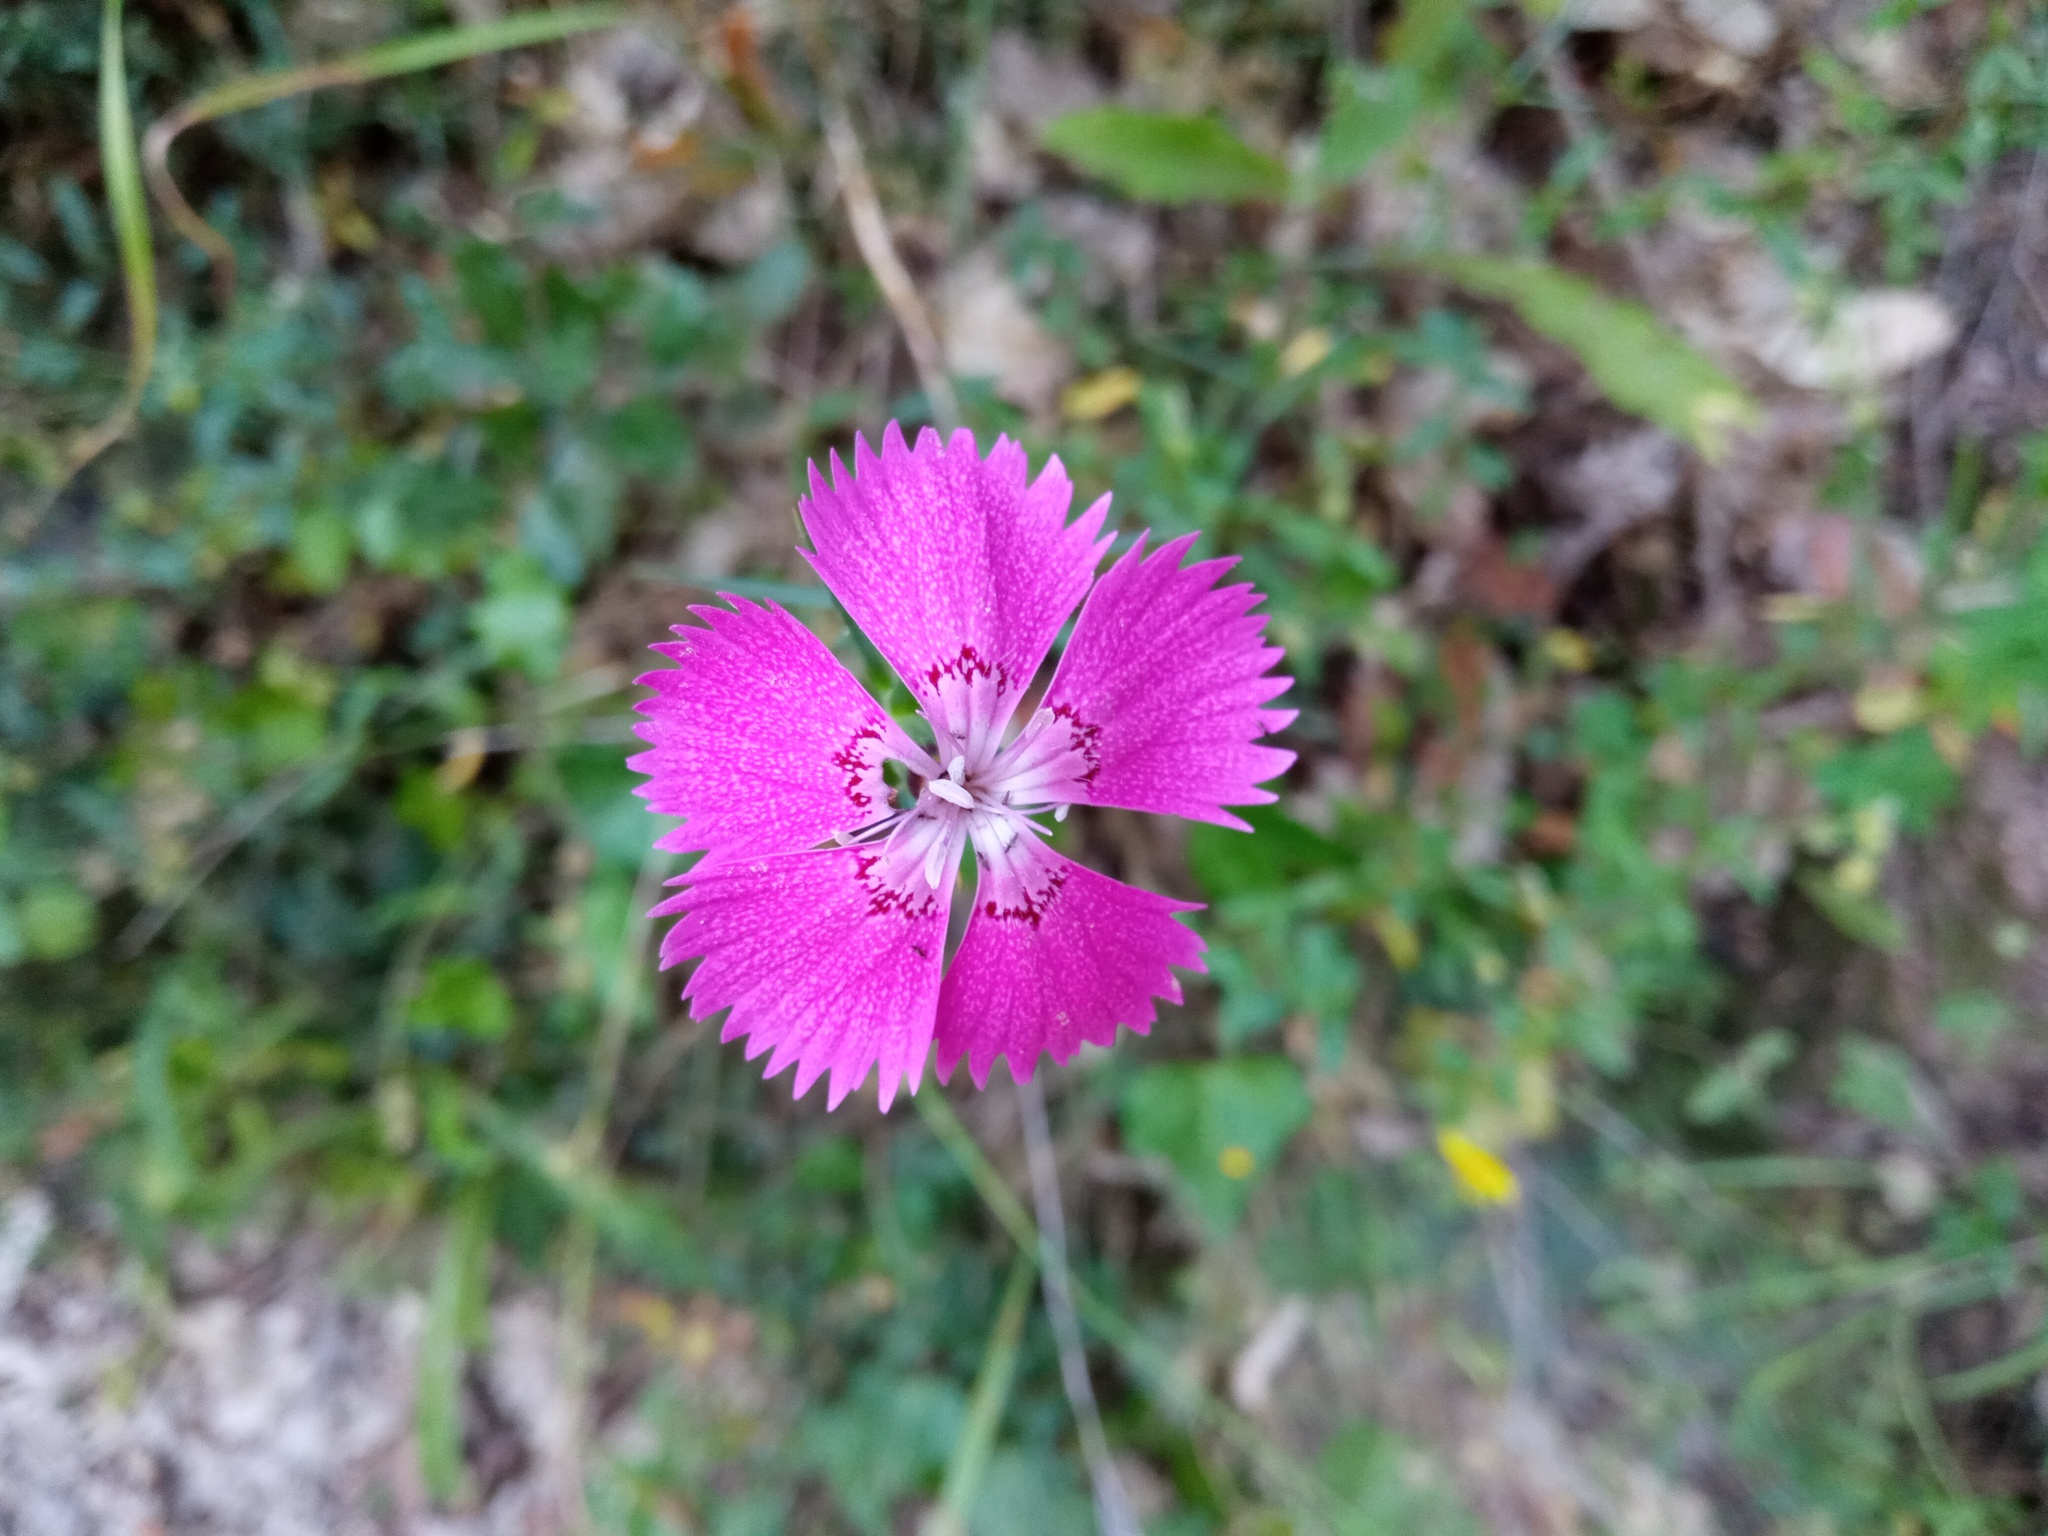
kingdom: Plantae
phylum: Tracheophyta
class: Magnoliopsida
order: Caryophyllales
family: Caryophyllaceae
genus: Dianthus
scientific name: Dianthus seguieri
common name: Ragged pink
